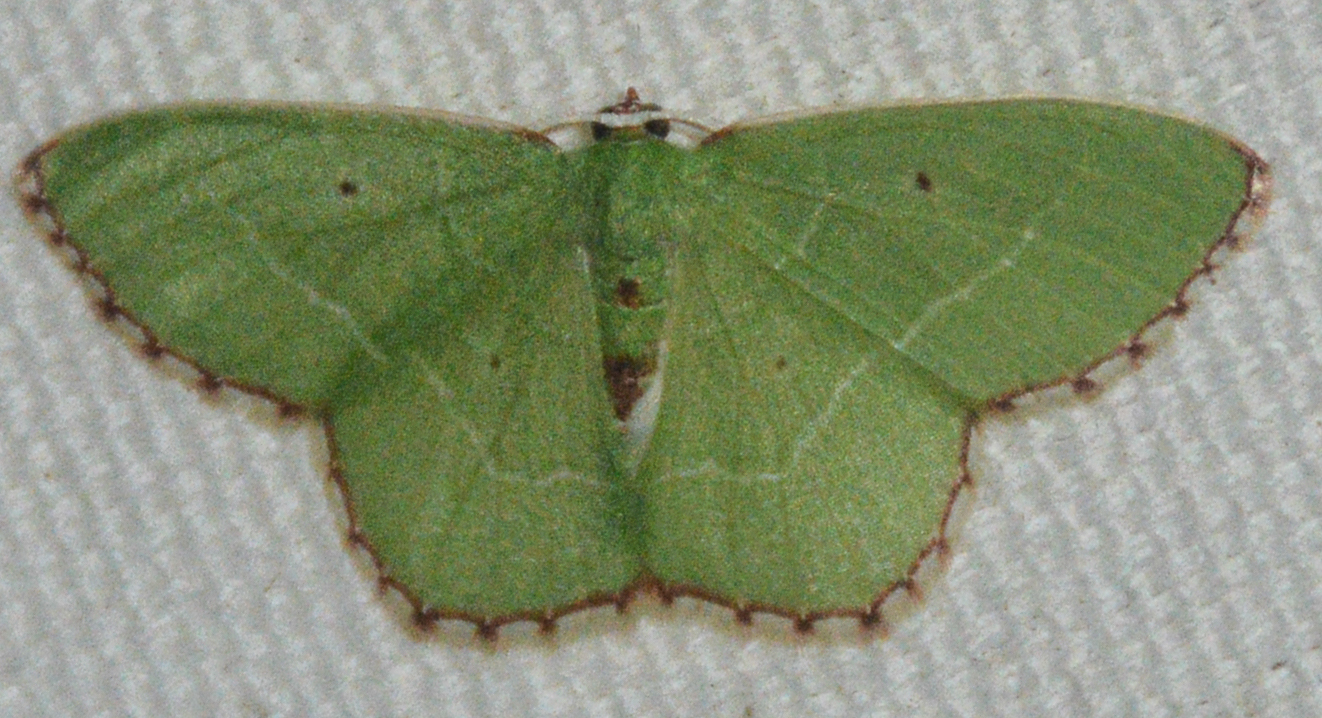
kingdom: Animalia
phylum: Arthropoda
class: Insecta
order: Lepidoptera
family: Geometridae
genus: Nemoria
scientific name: Nemoria saturiba
